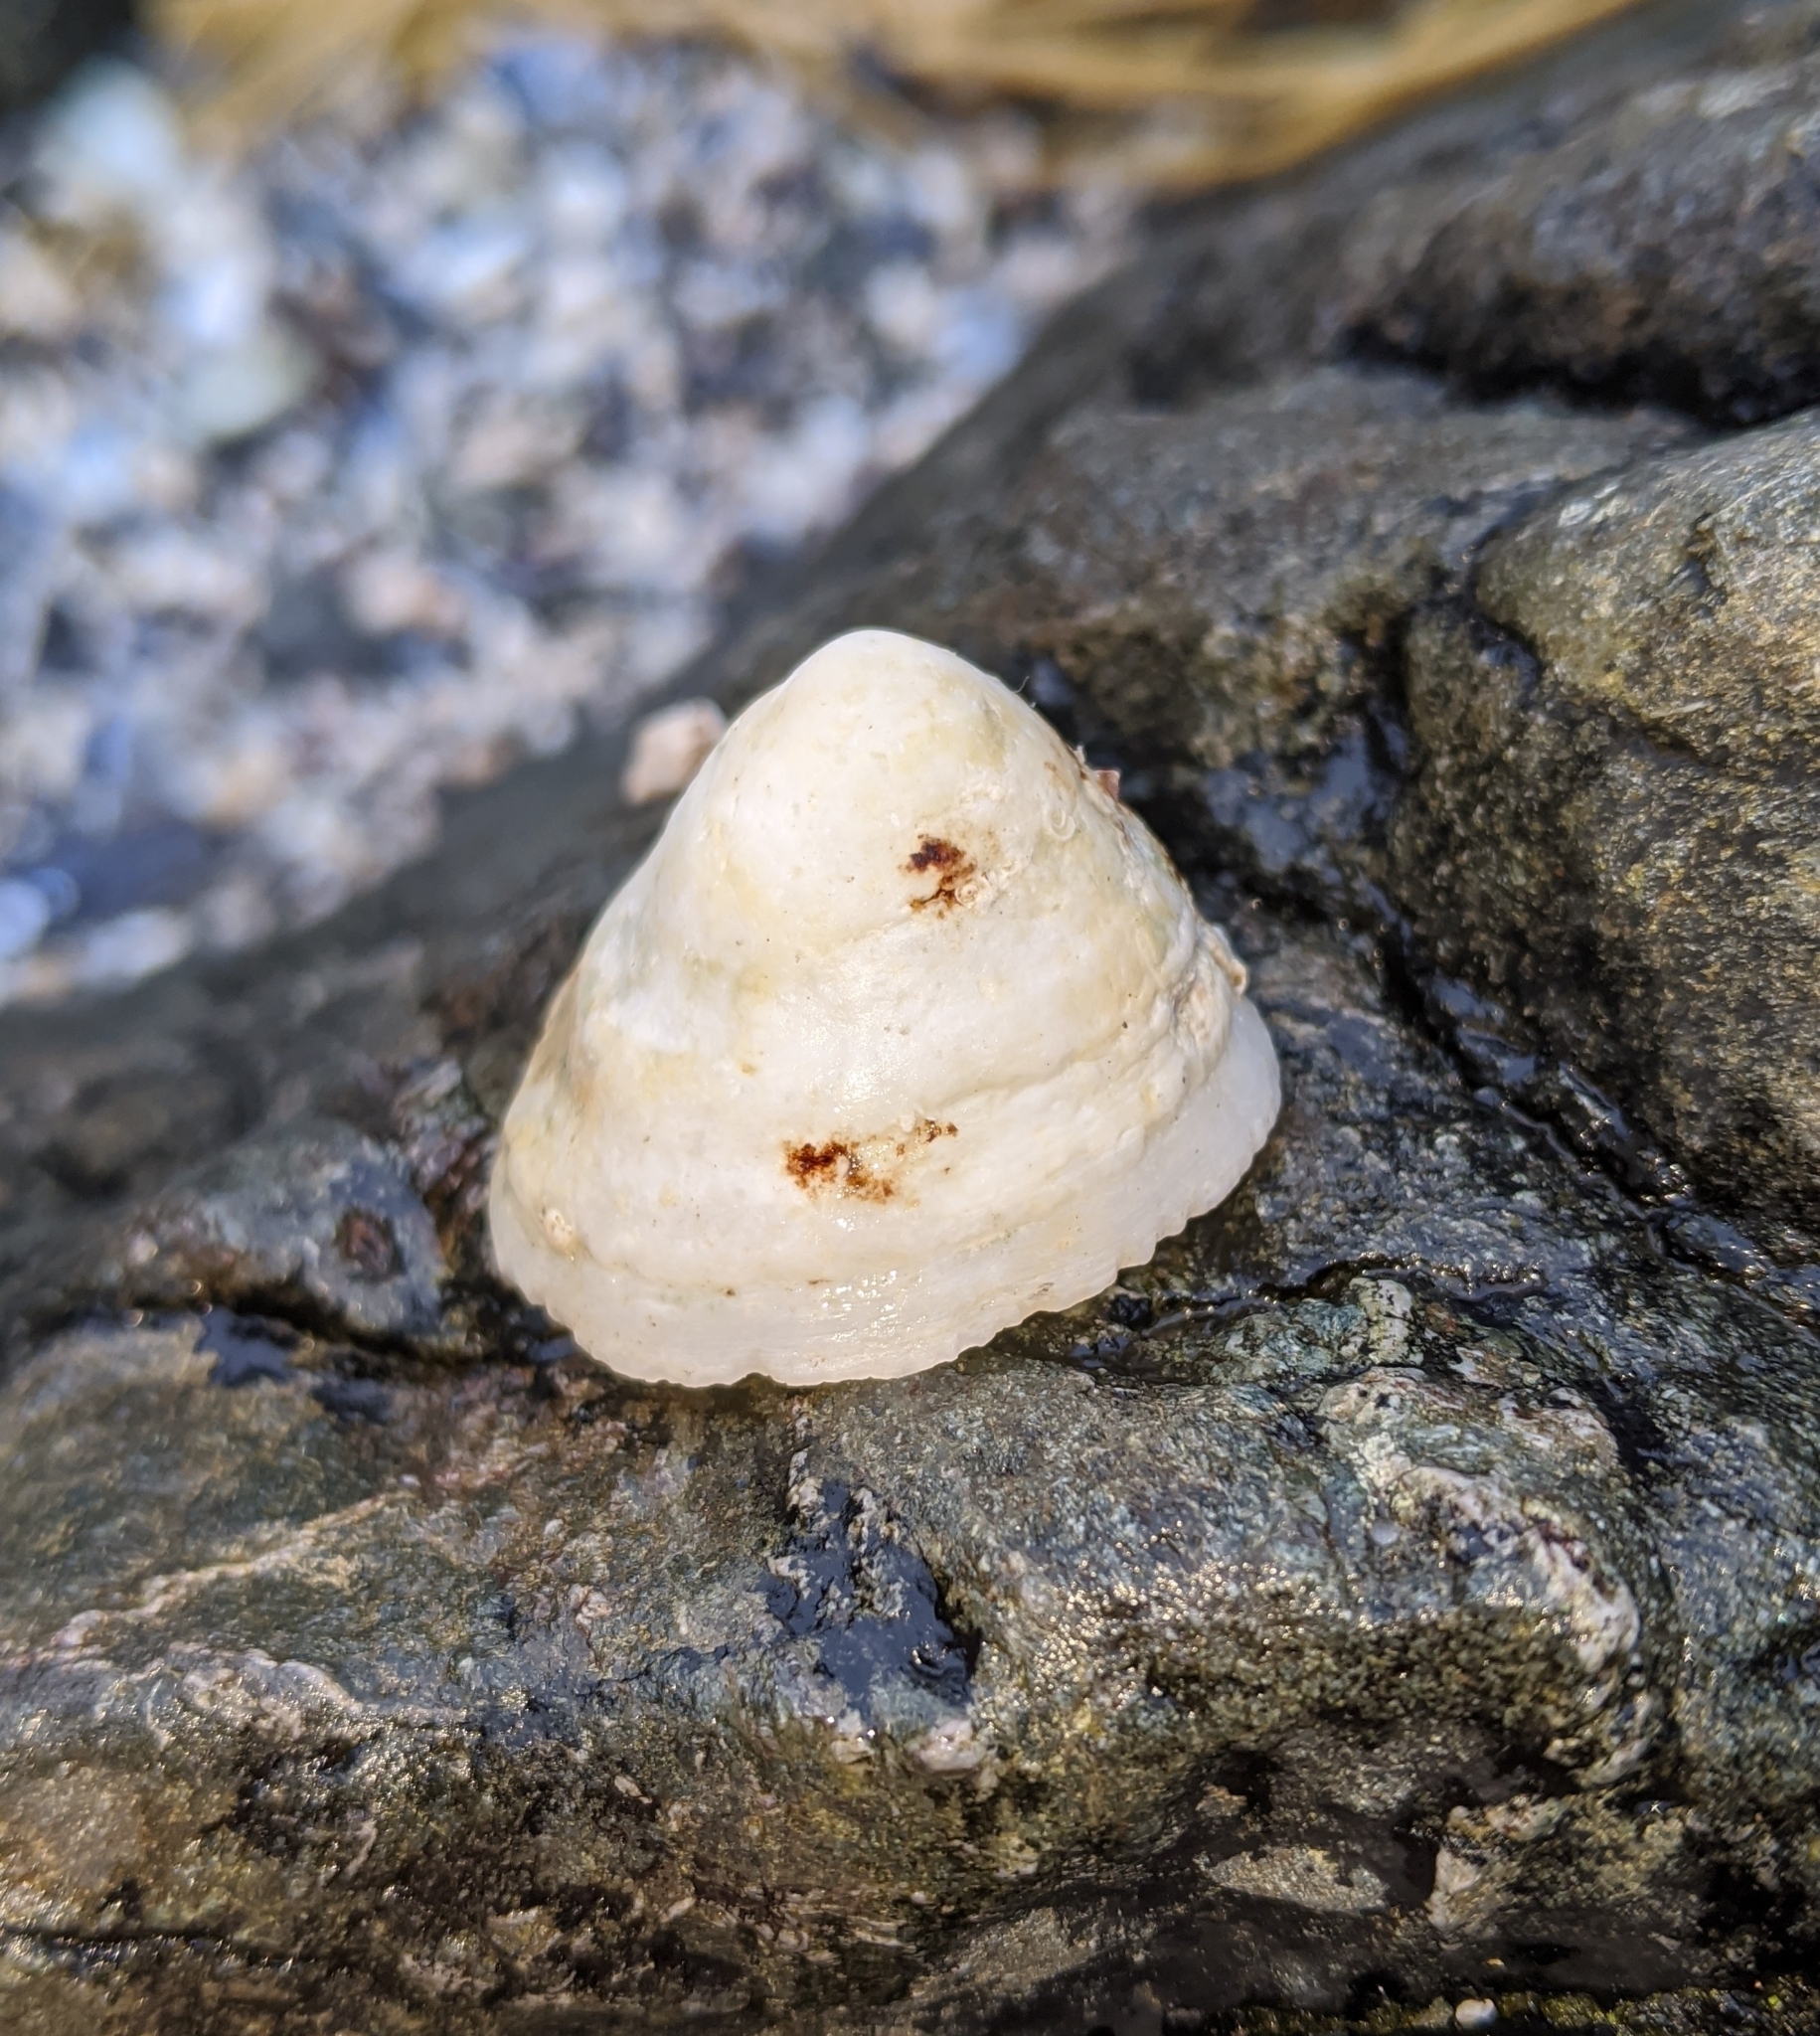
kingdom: Animalia
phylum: Mollusca
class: Gastropoda
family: Acmaeidae
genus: Acmaea
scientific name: Acmaea mitra
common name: Pacific white cap limpet
